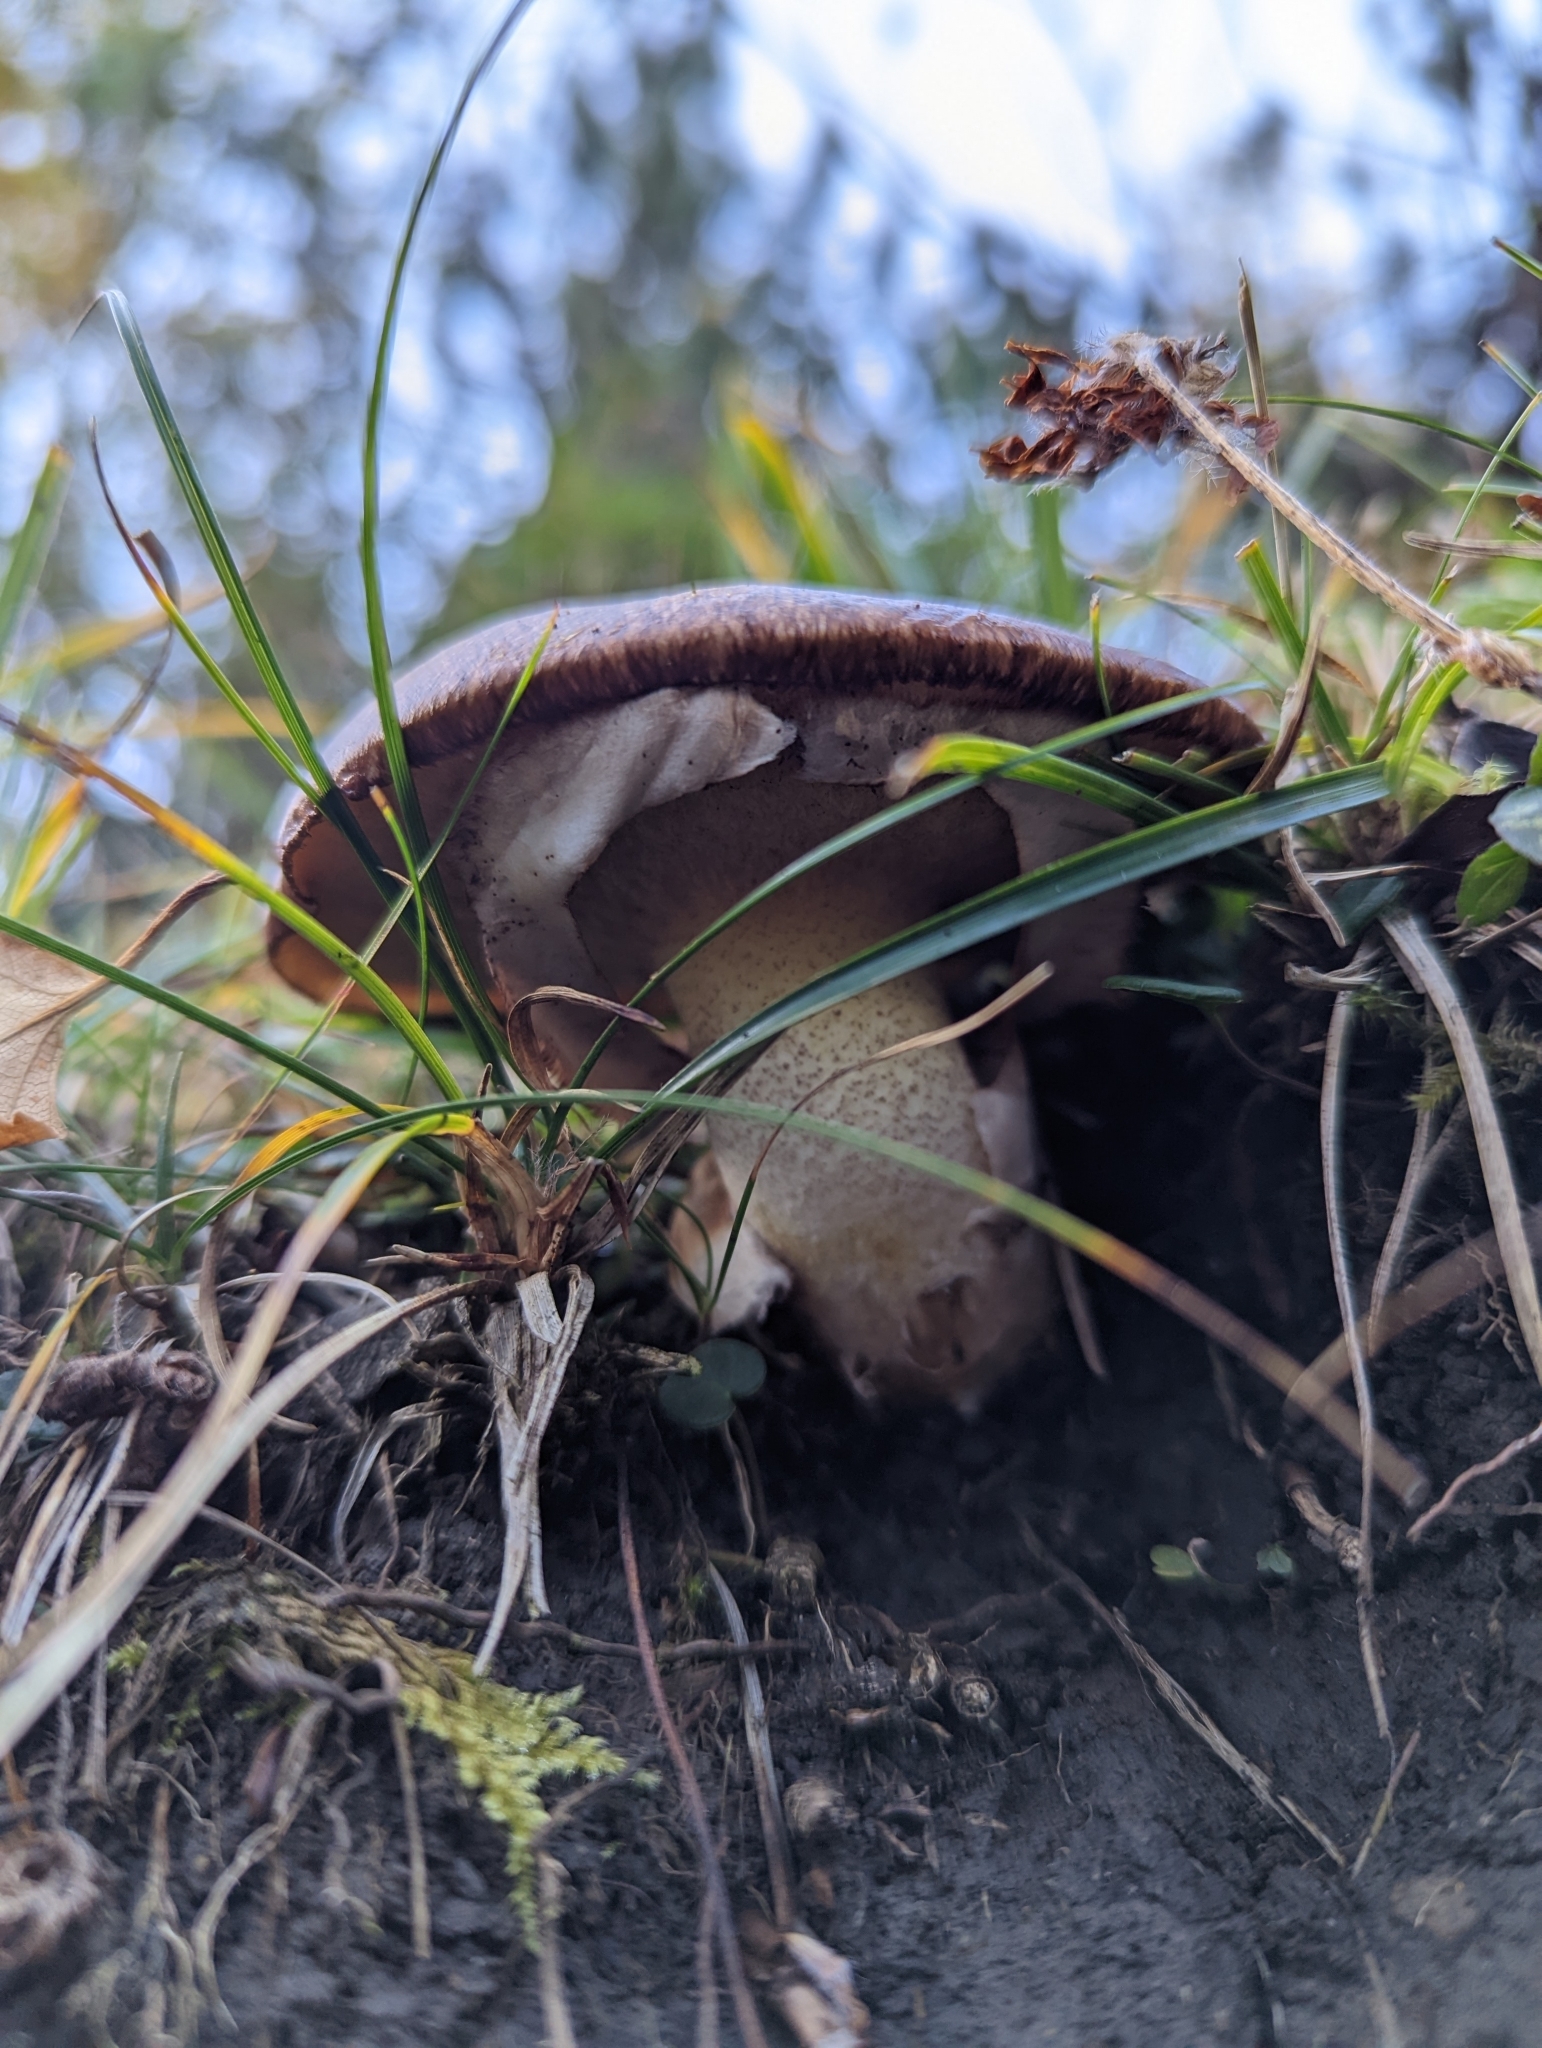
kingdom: Fungi
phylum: Basidiomycota
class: Agaricomycetes
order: Boletales
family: Suillaceae
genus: Suillus
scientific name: Suillus luteus
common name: Slippery jack
